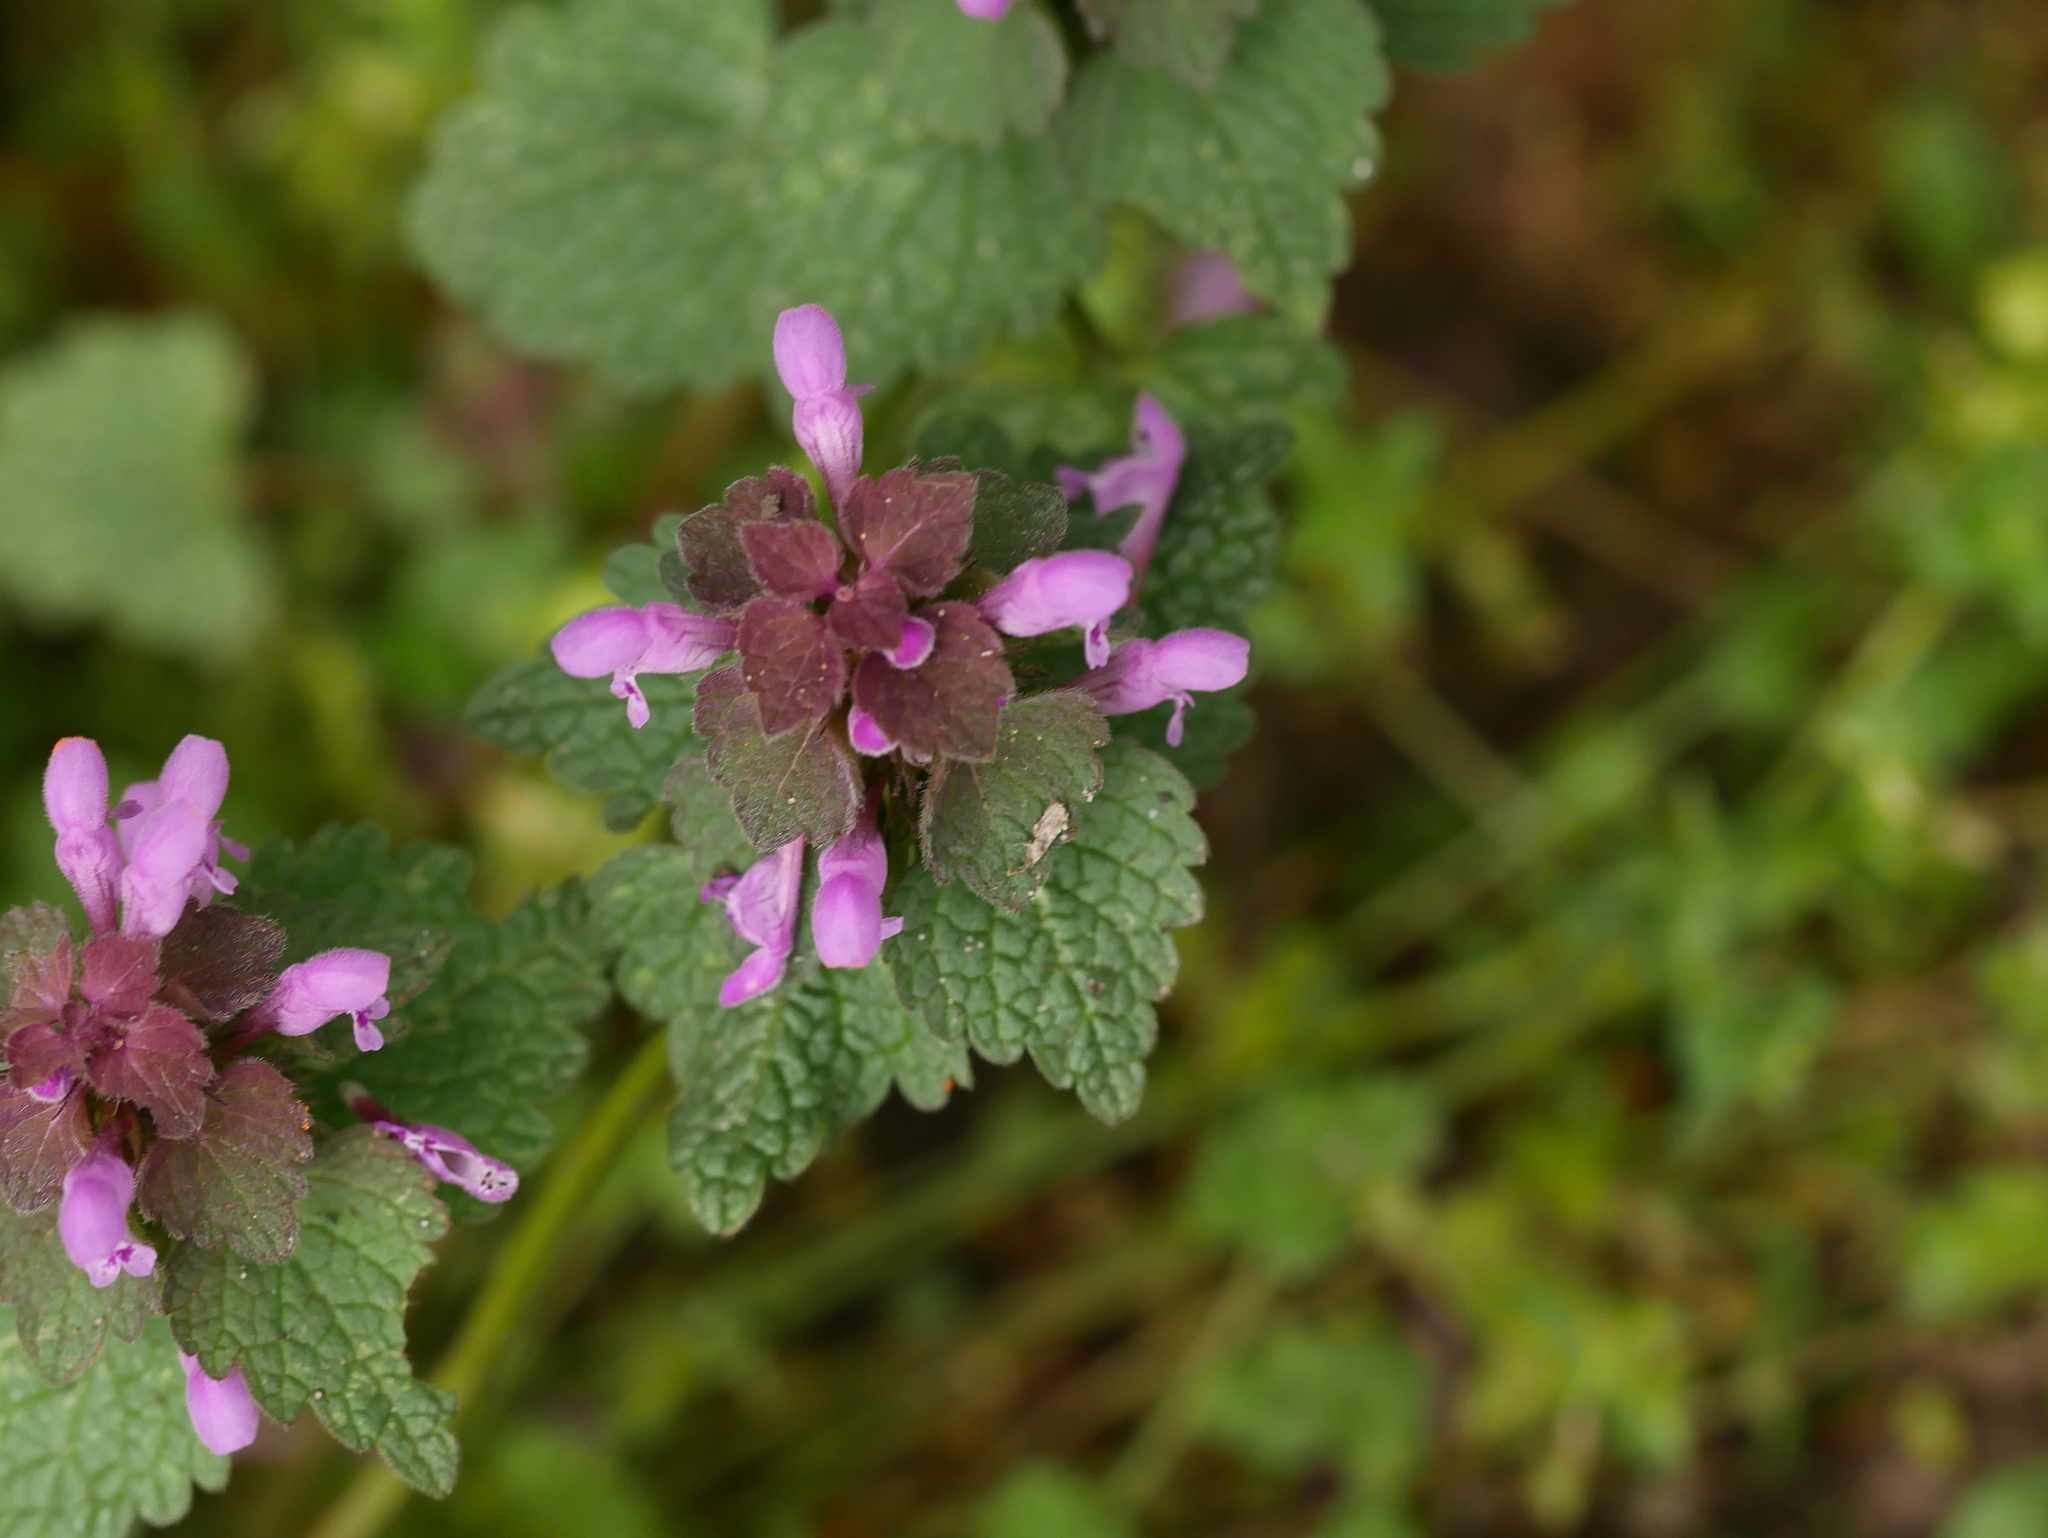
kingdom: Plantae
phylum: Tracheophyta
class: Magnoliopsida
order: Lamiales
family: Lamiaceae
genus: Lamium
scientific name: Lamium purpureum
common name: Red dead-nettle
